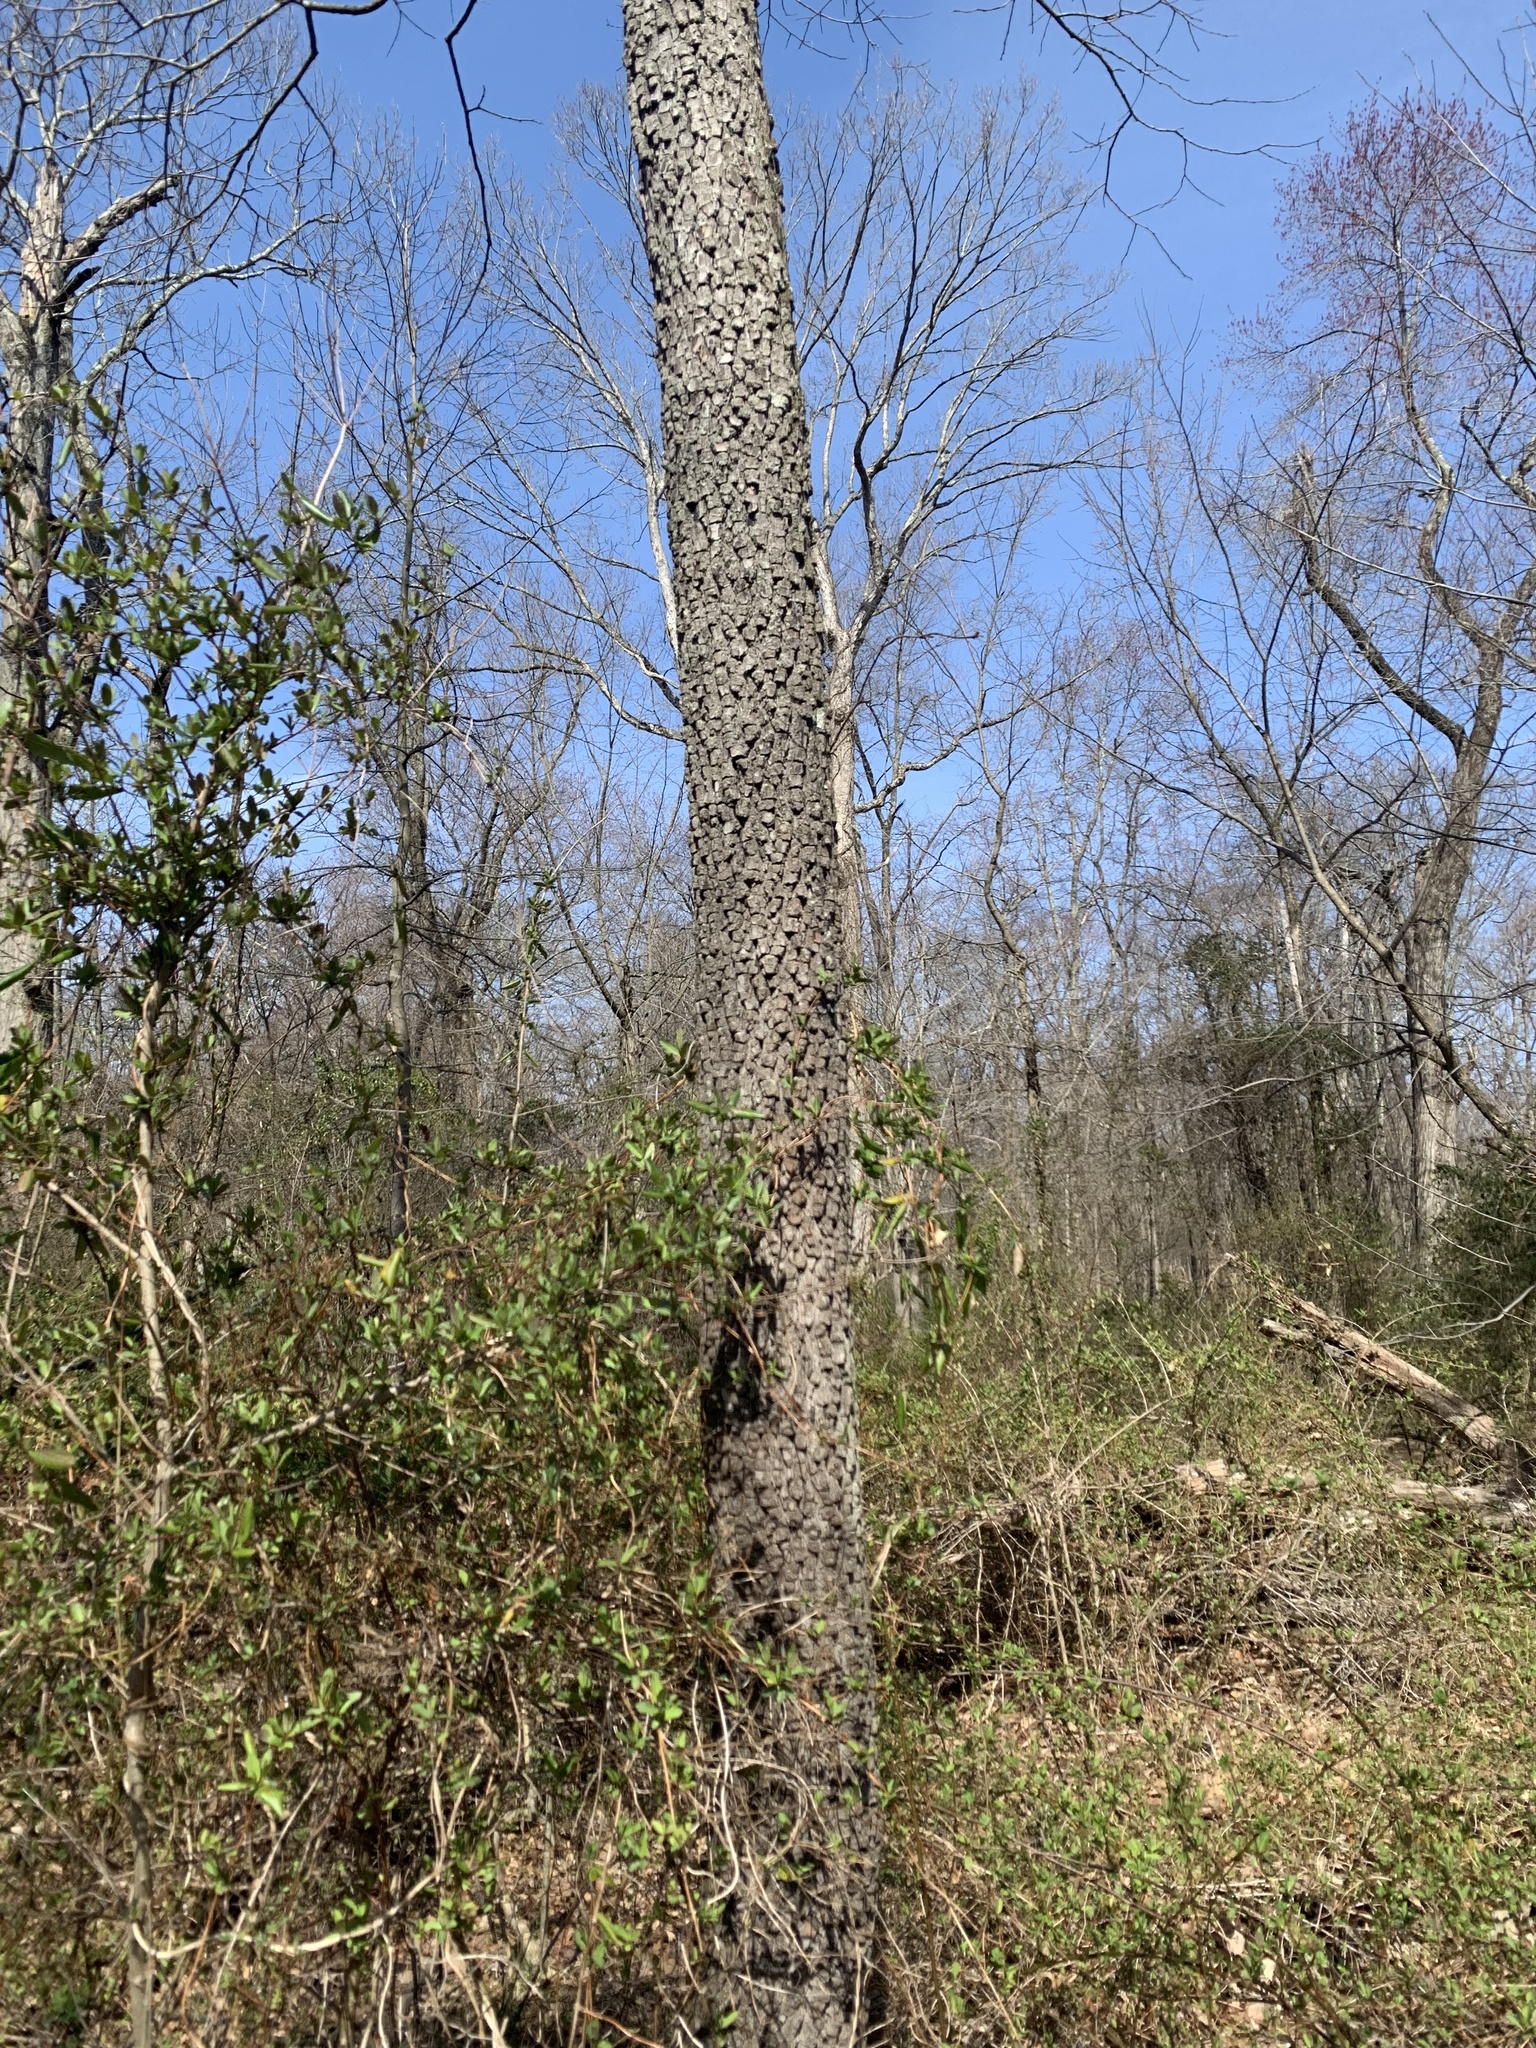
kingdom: Plantae
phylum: Tracheophyta
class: Magnoliopsida
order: Ericales
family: Ebenaceae
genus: Diospyros
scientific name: Diospyros virginiana
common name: Persimmon
